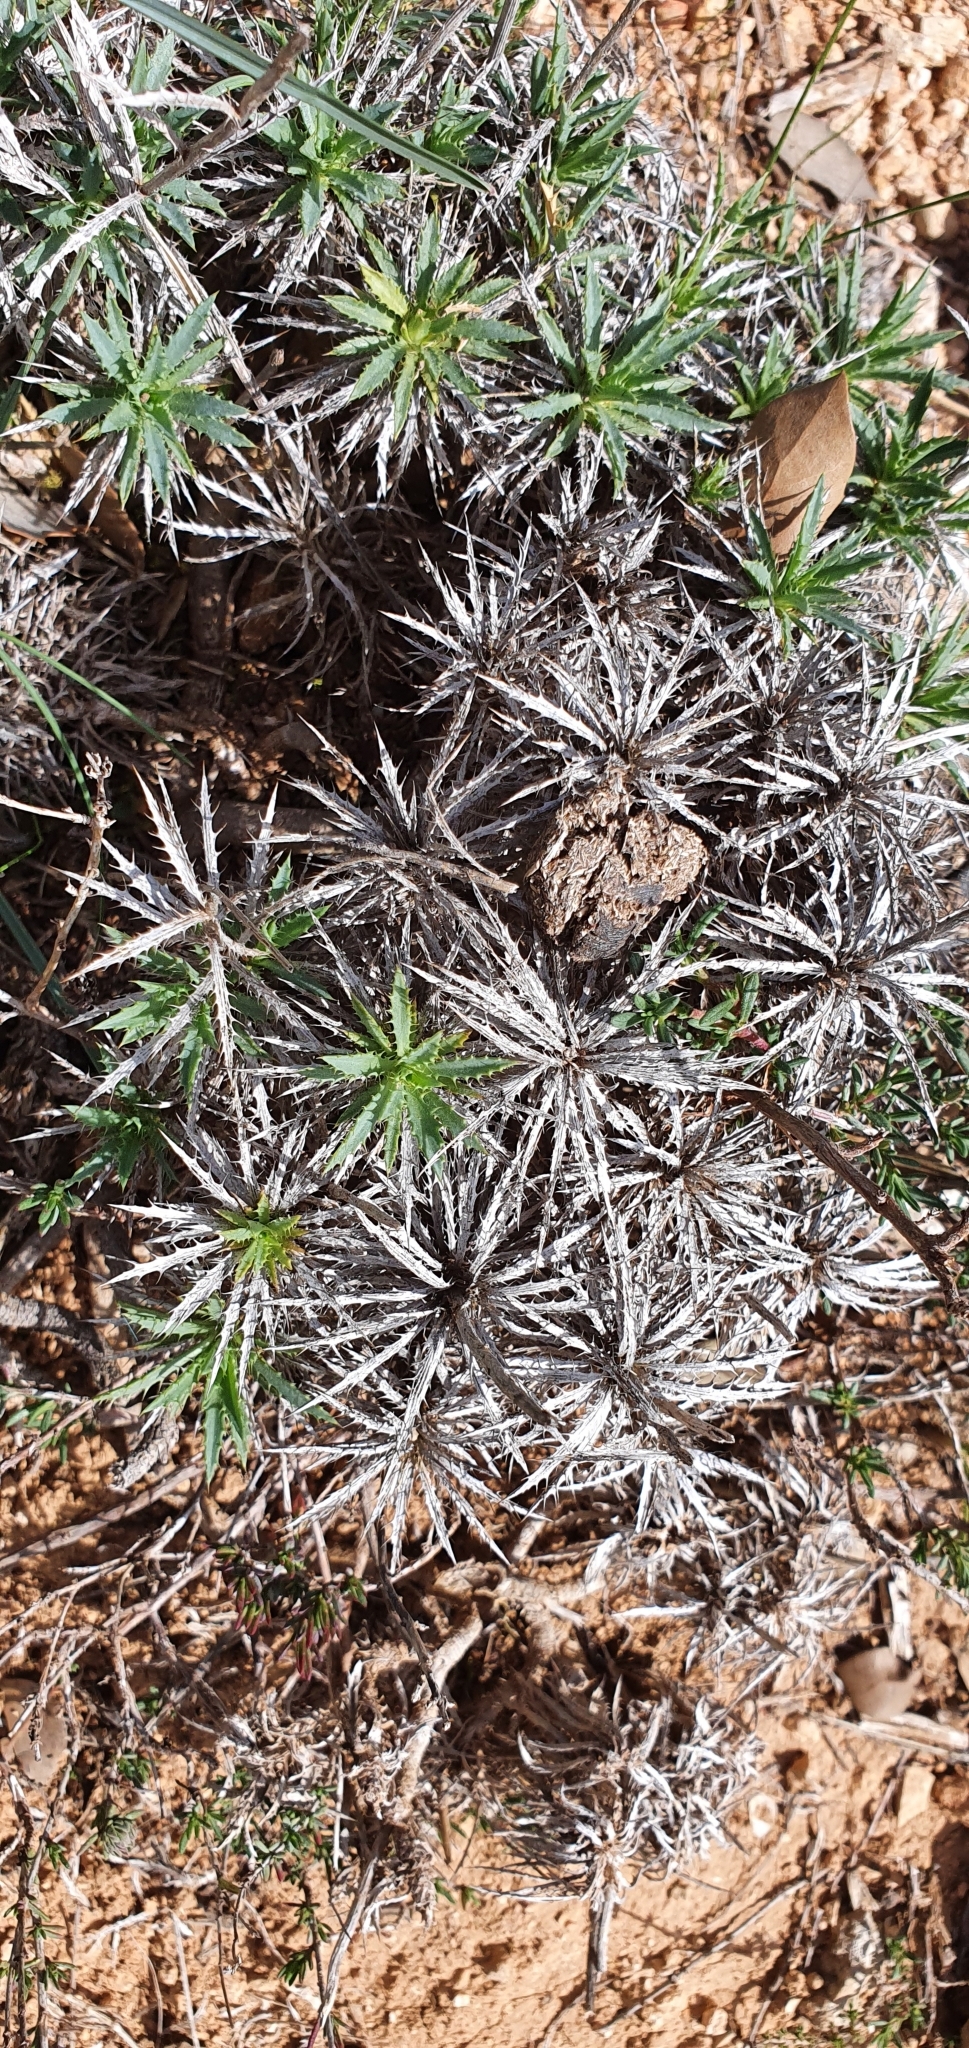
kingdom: Plantae
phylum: Tracheophyta
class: Magnoliopsida
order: Asterales
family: Asteraceae
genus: Atractylis
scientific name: Atractylis caespitosa
